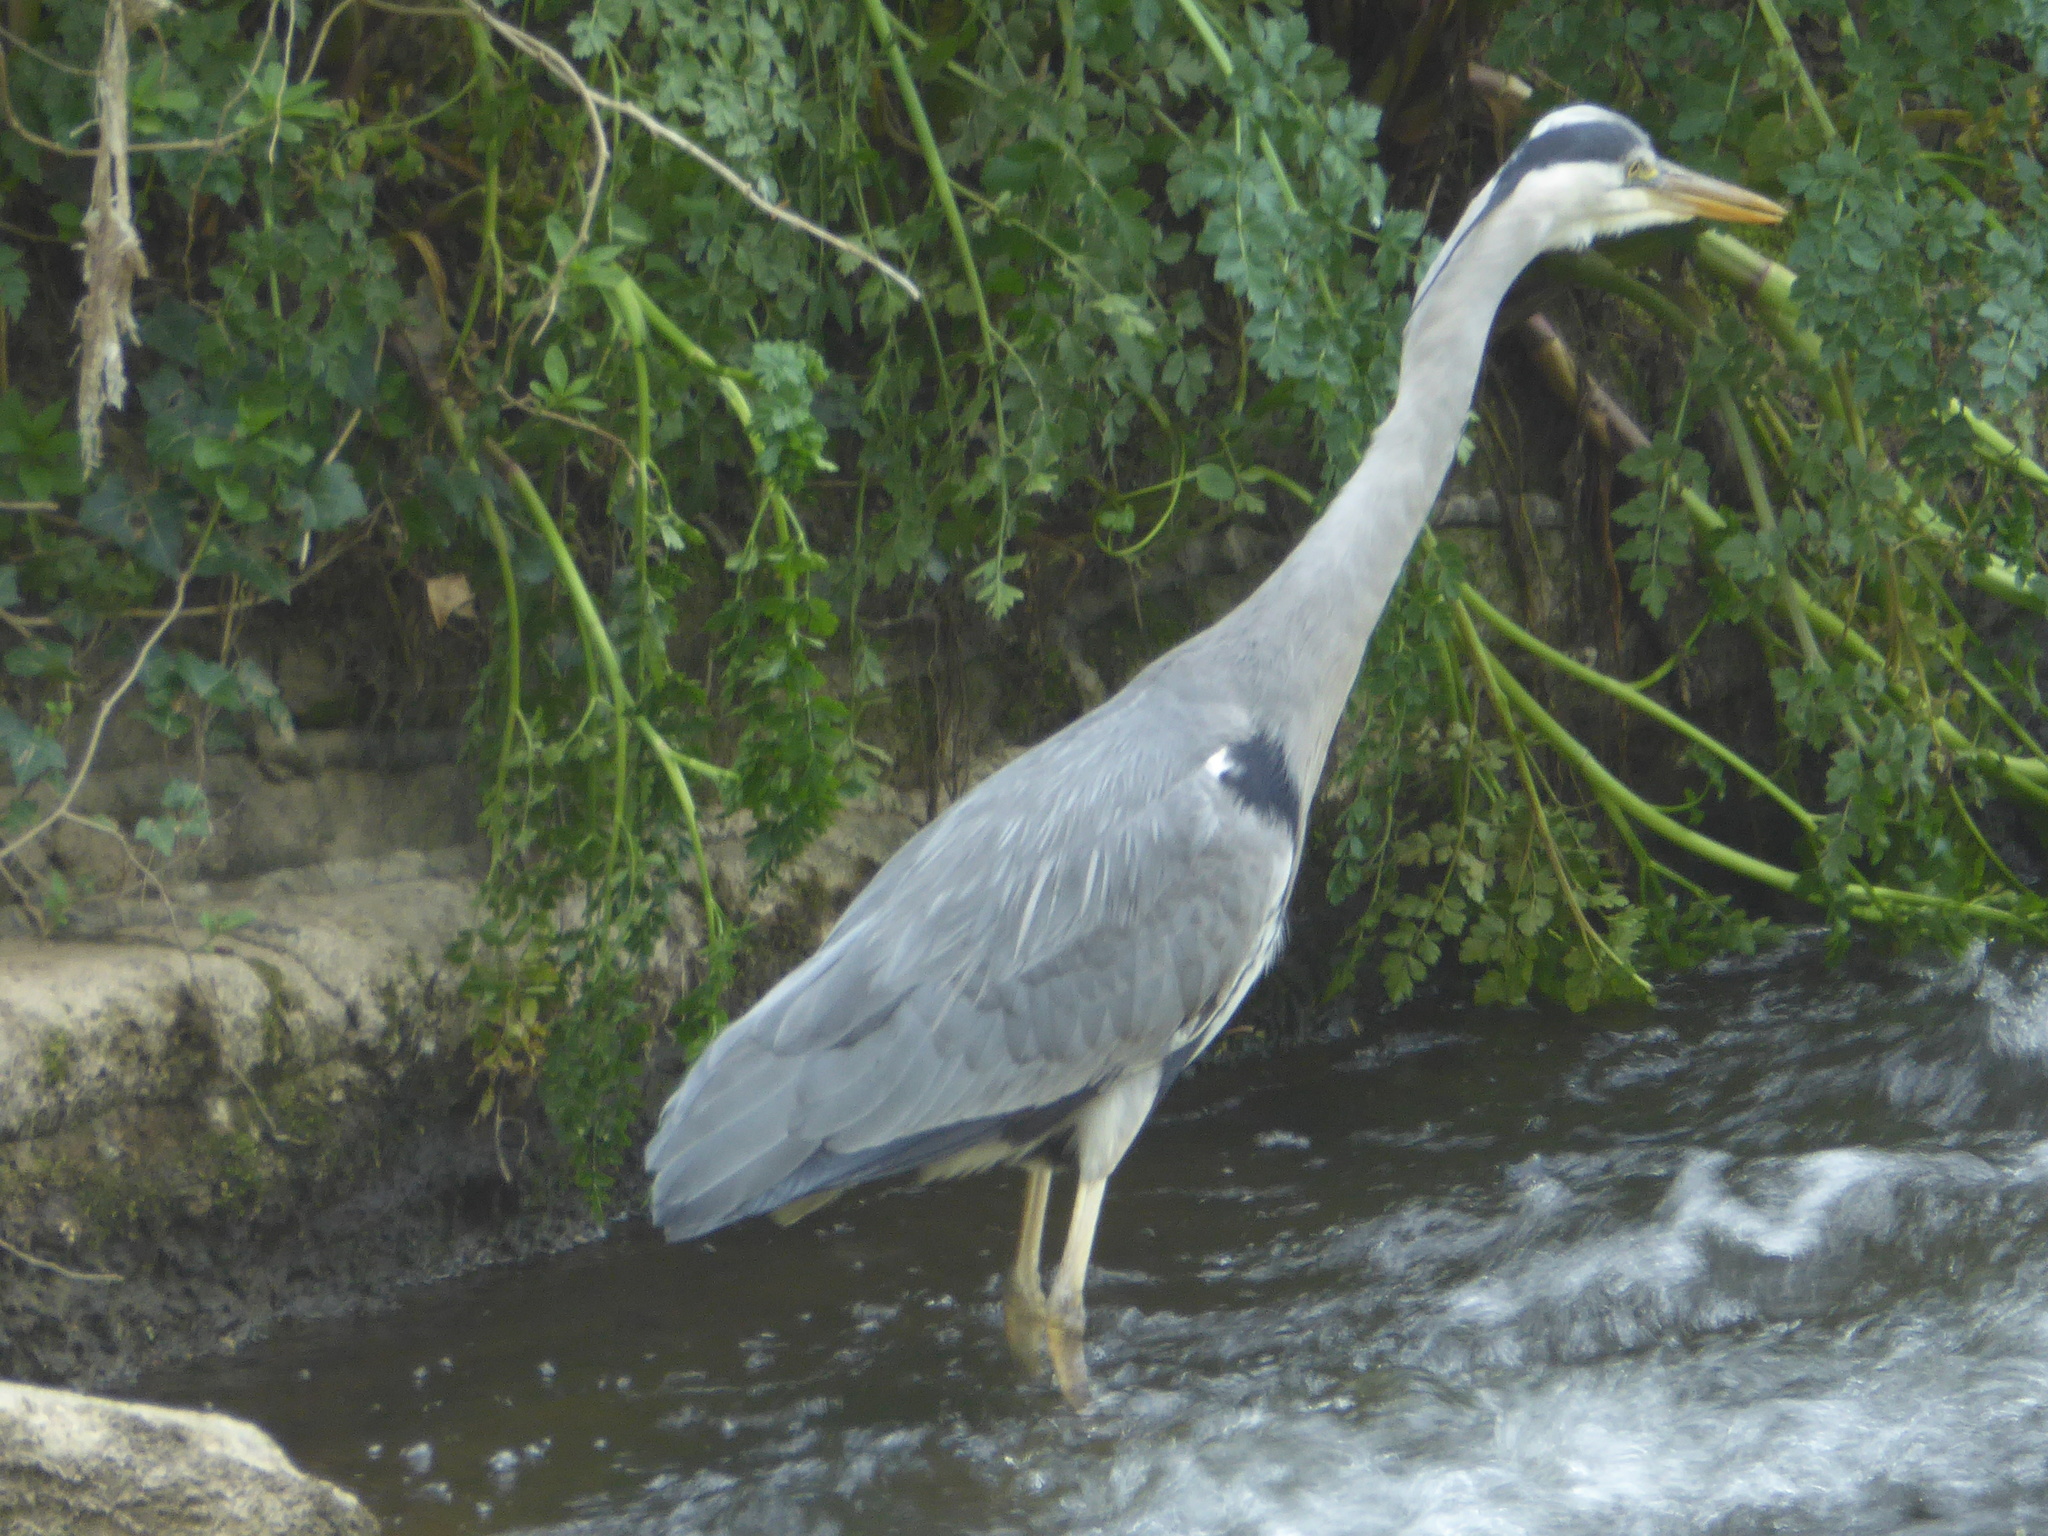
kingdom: Animalia
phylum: Chordata
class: Aves
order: Pelecaniformes
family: Ardeidae
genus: Ardea
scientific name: Ardea cinerea
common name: Grey heron
